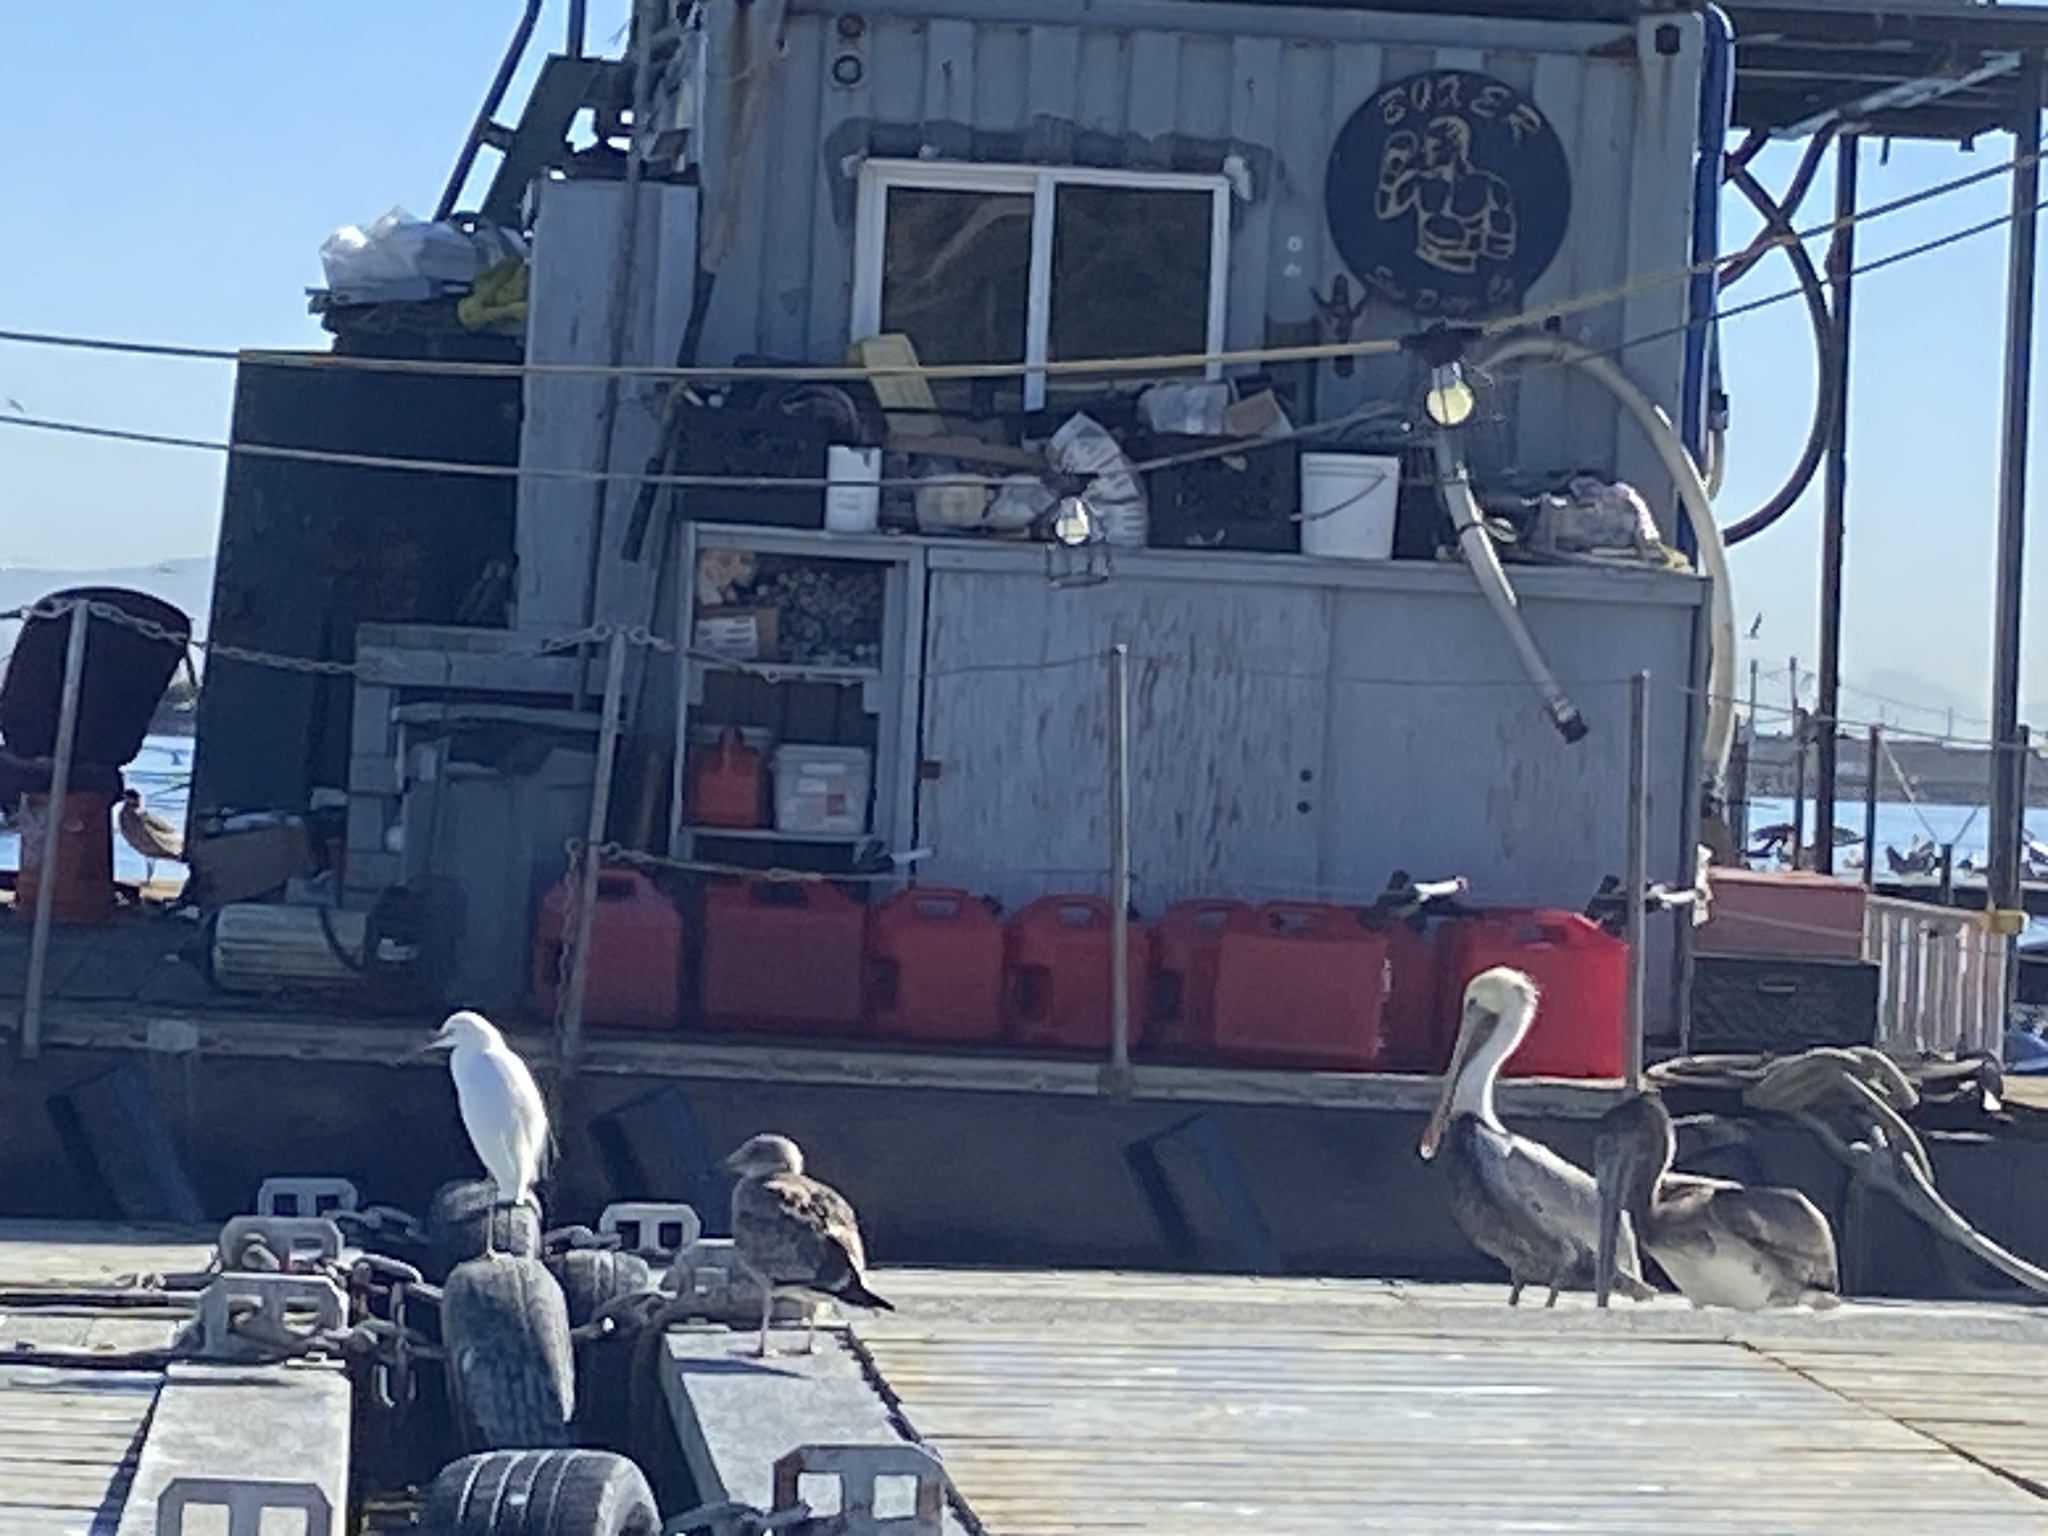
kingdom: Animalia
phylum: Chordata
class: Aves
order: Pelecaniformes
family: Ardeidae
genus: Egretta
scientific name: Egretta thula
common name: Snowy egret
